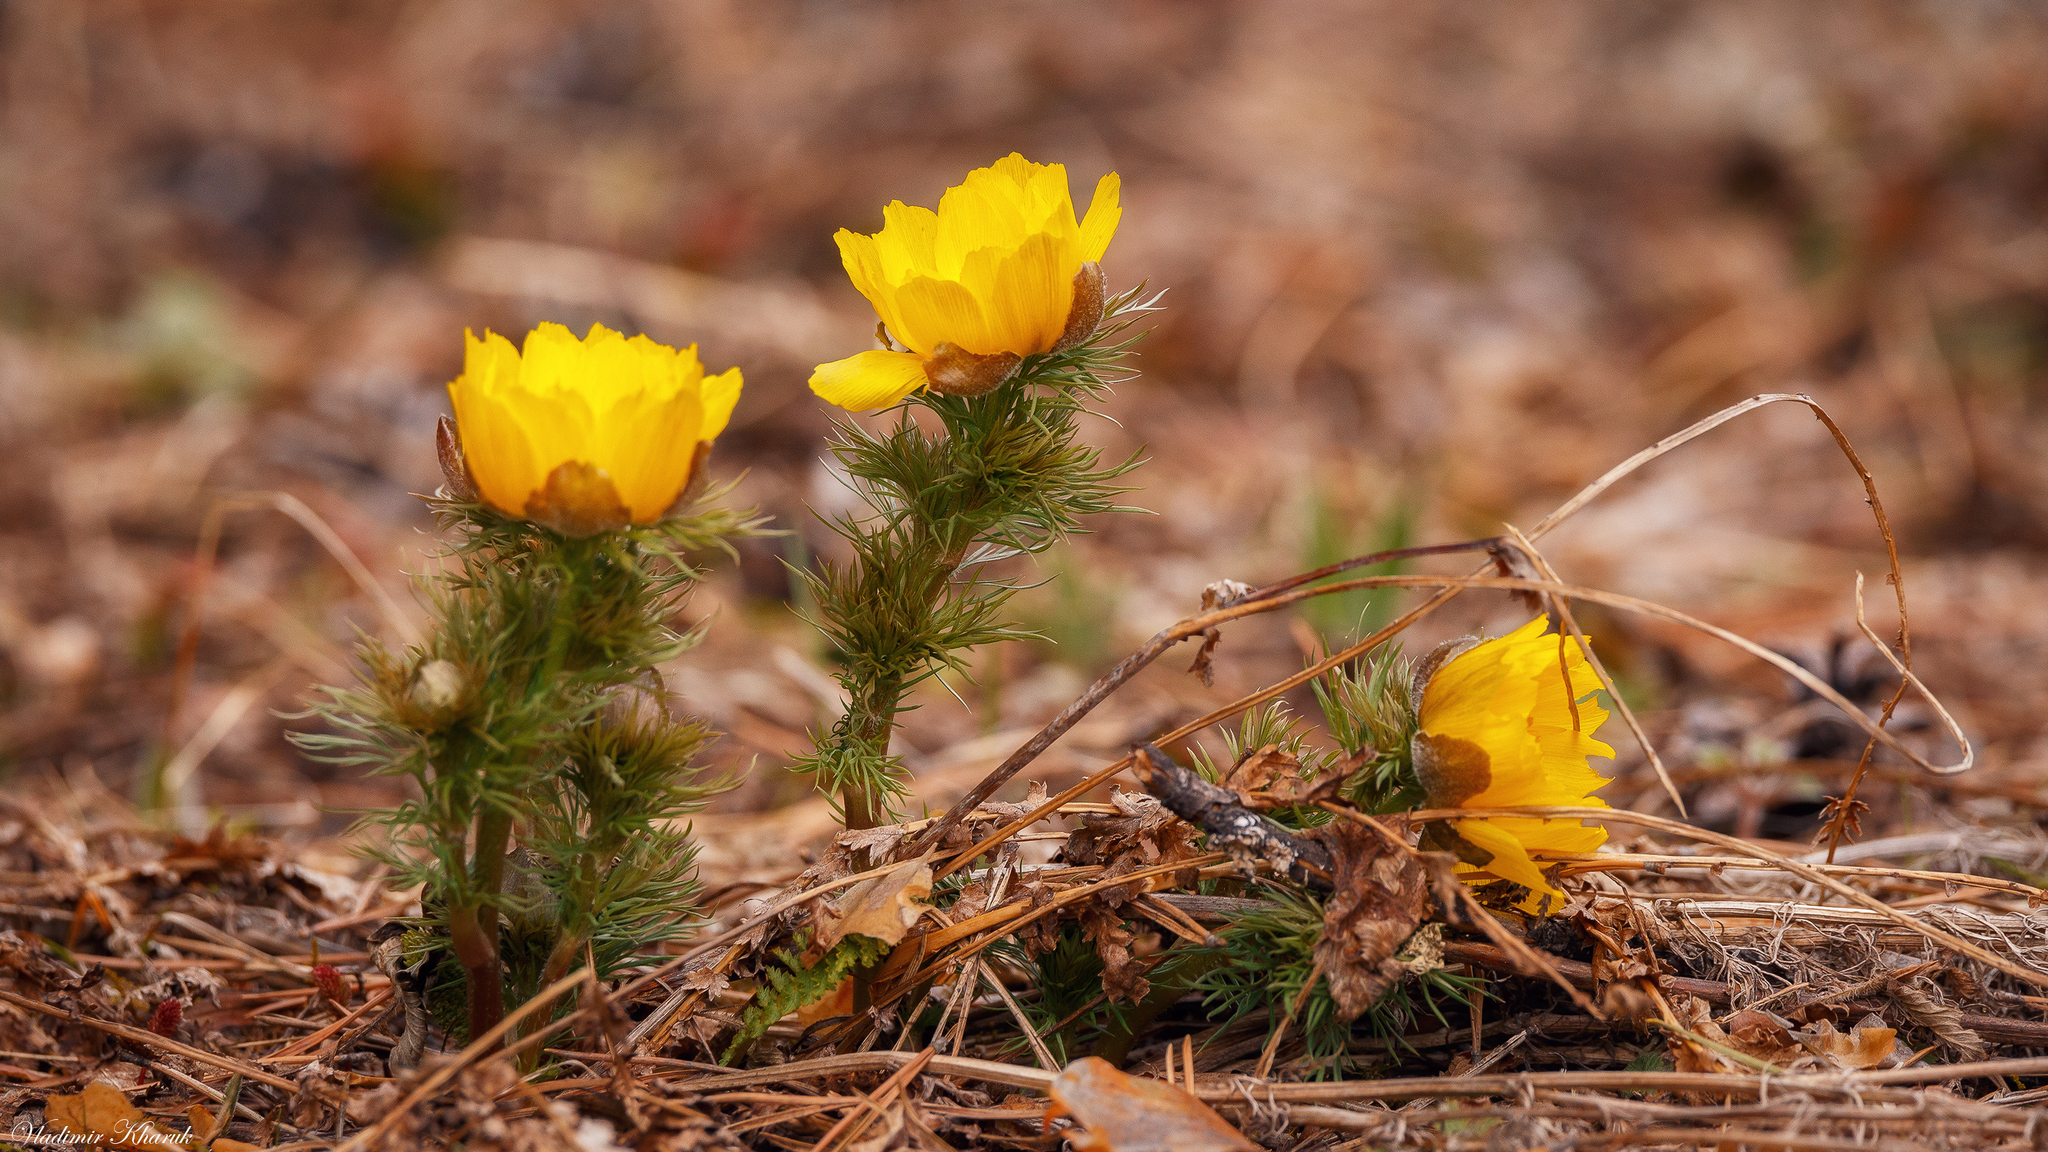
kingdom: Plantae
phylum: Tracheophyta
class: Magnoliopsida
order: Ranunculales
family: Ranunculaceae
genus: Adonis
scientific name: Adonis vernalis
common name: Yellow pheasants-eye
